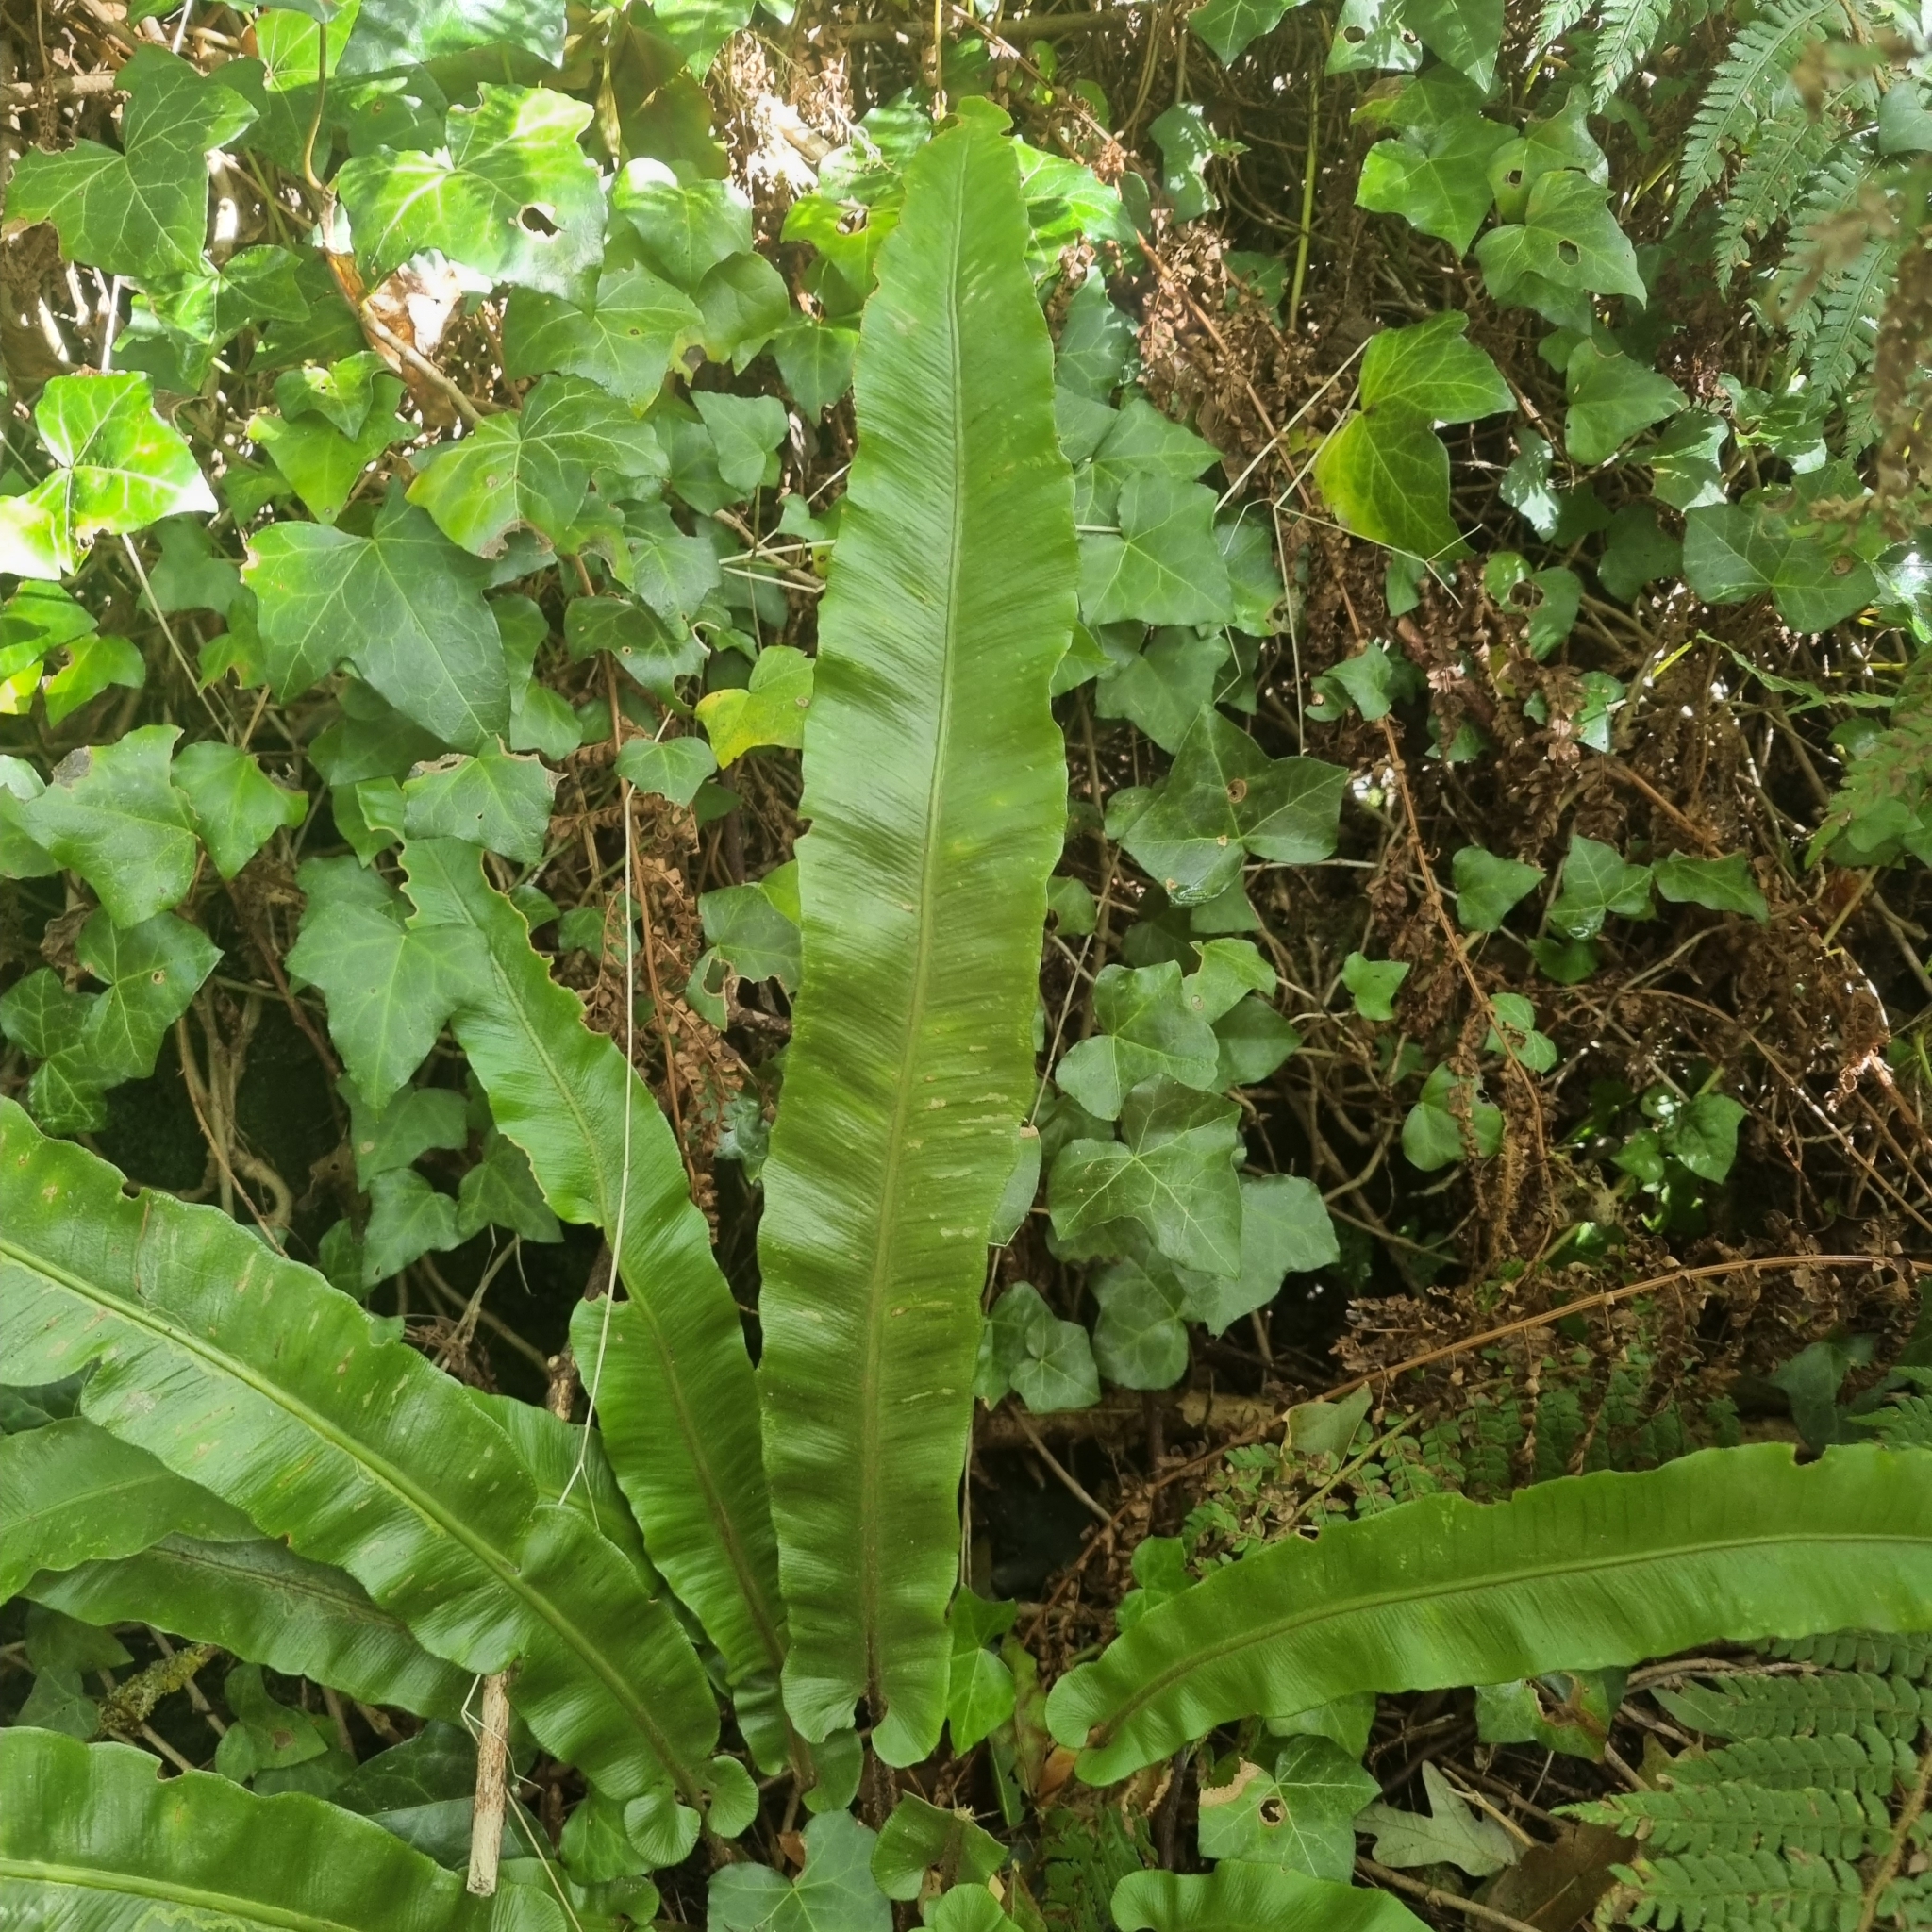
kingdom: Plantae
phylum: Tracheophyta
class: Polypodiopsida
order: Polypodiales
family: Aspleniaceae
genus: Asplenium
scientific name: Asplenium scolopendrium
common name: Hart's-tongue fern
